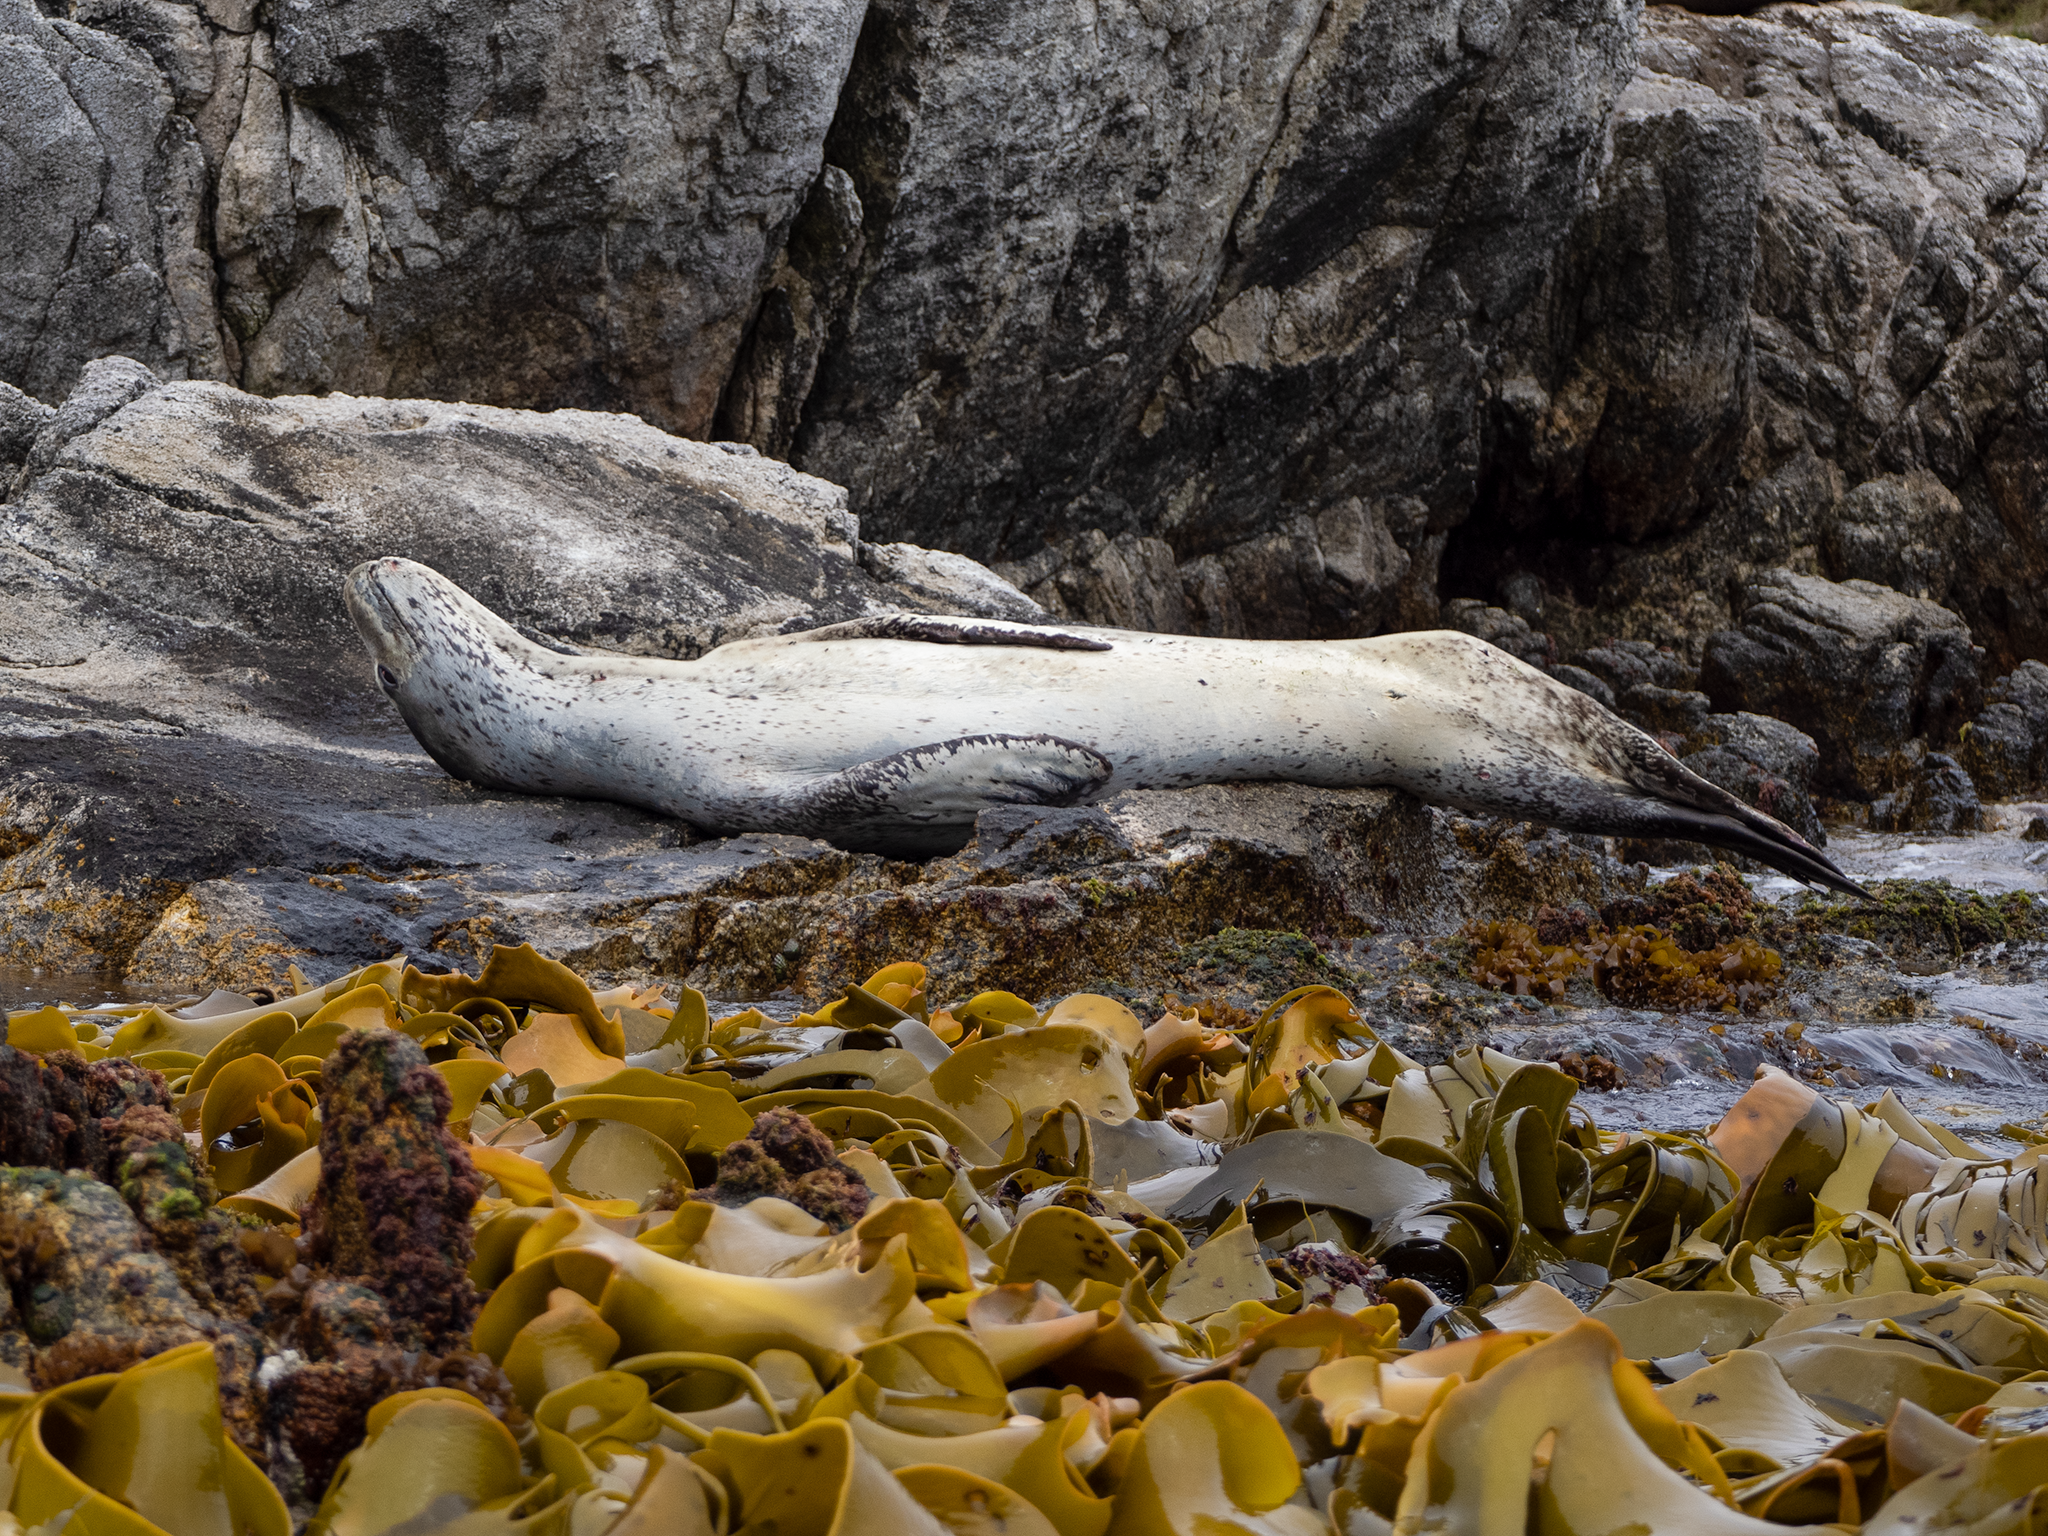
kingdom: Animalia
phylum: Chordata
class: Mammalia
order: Carnivora
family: Phocidae
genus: Hydrurga
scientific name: Hydrurga leptonyx
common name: Leopard seal
